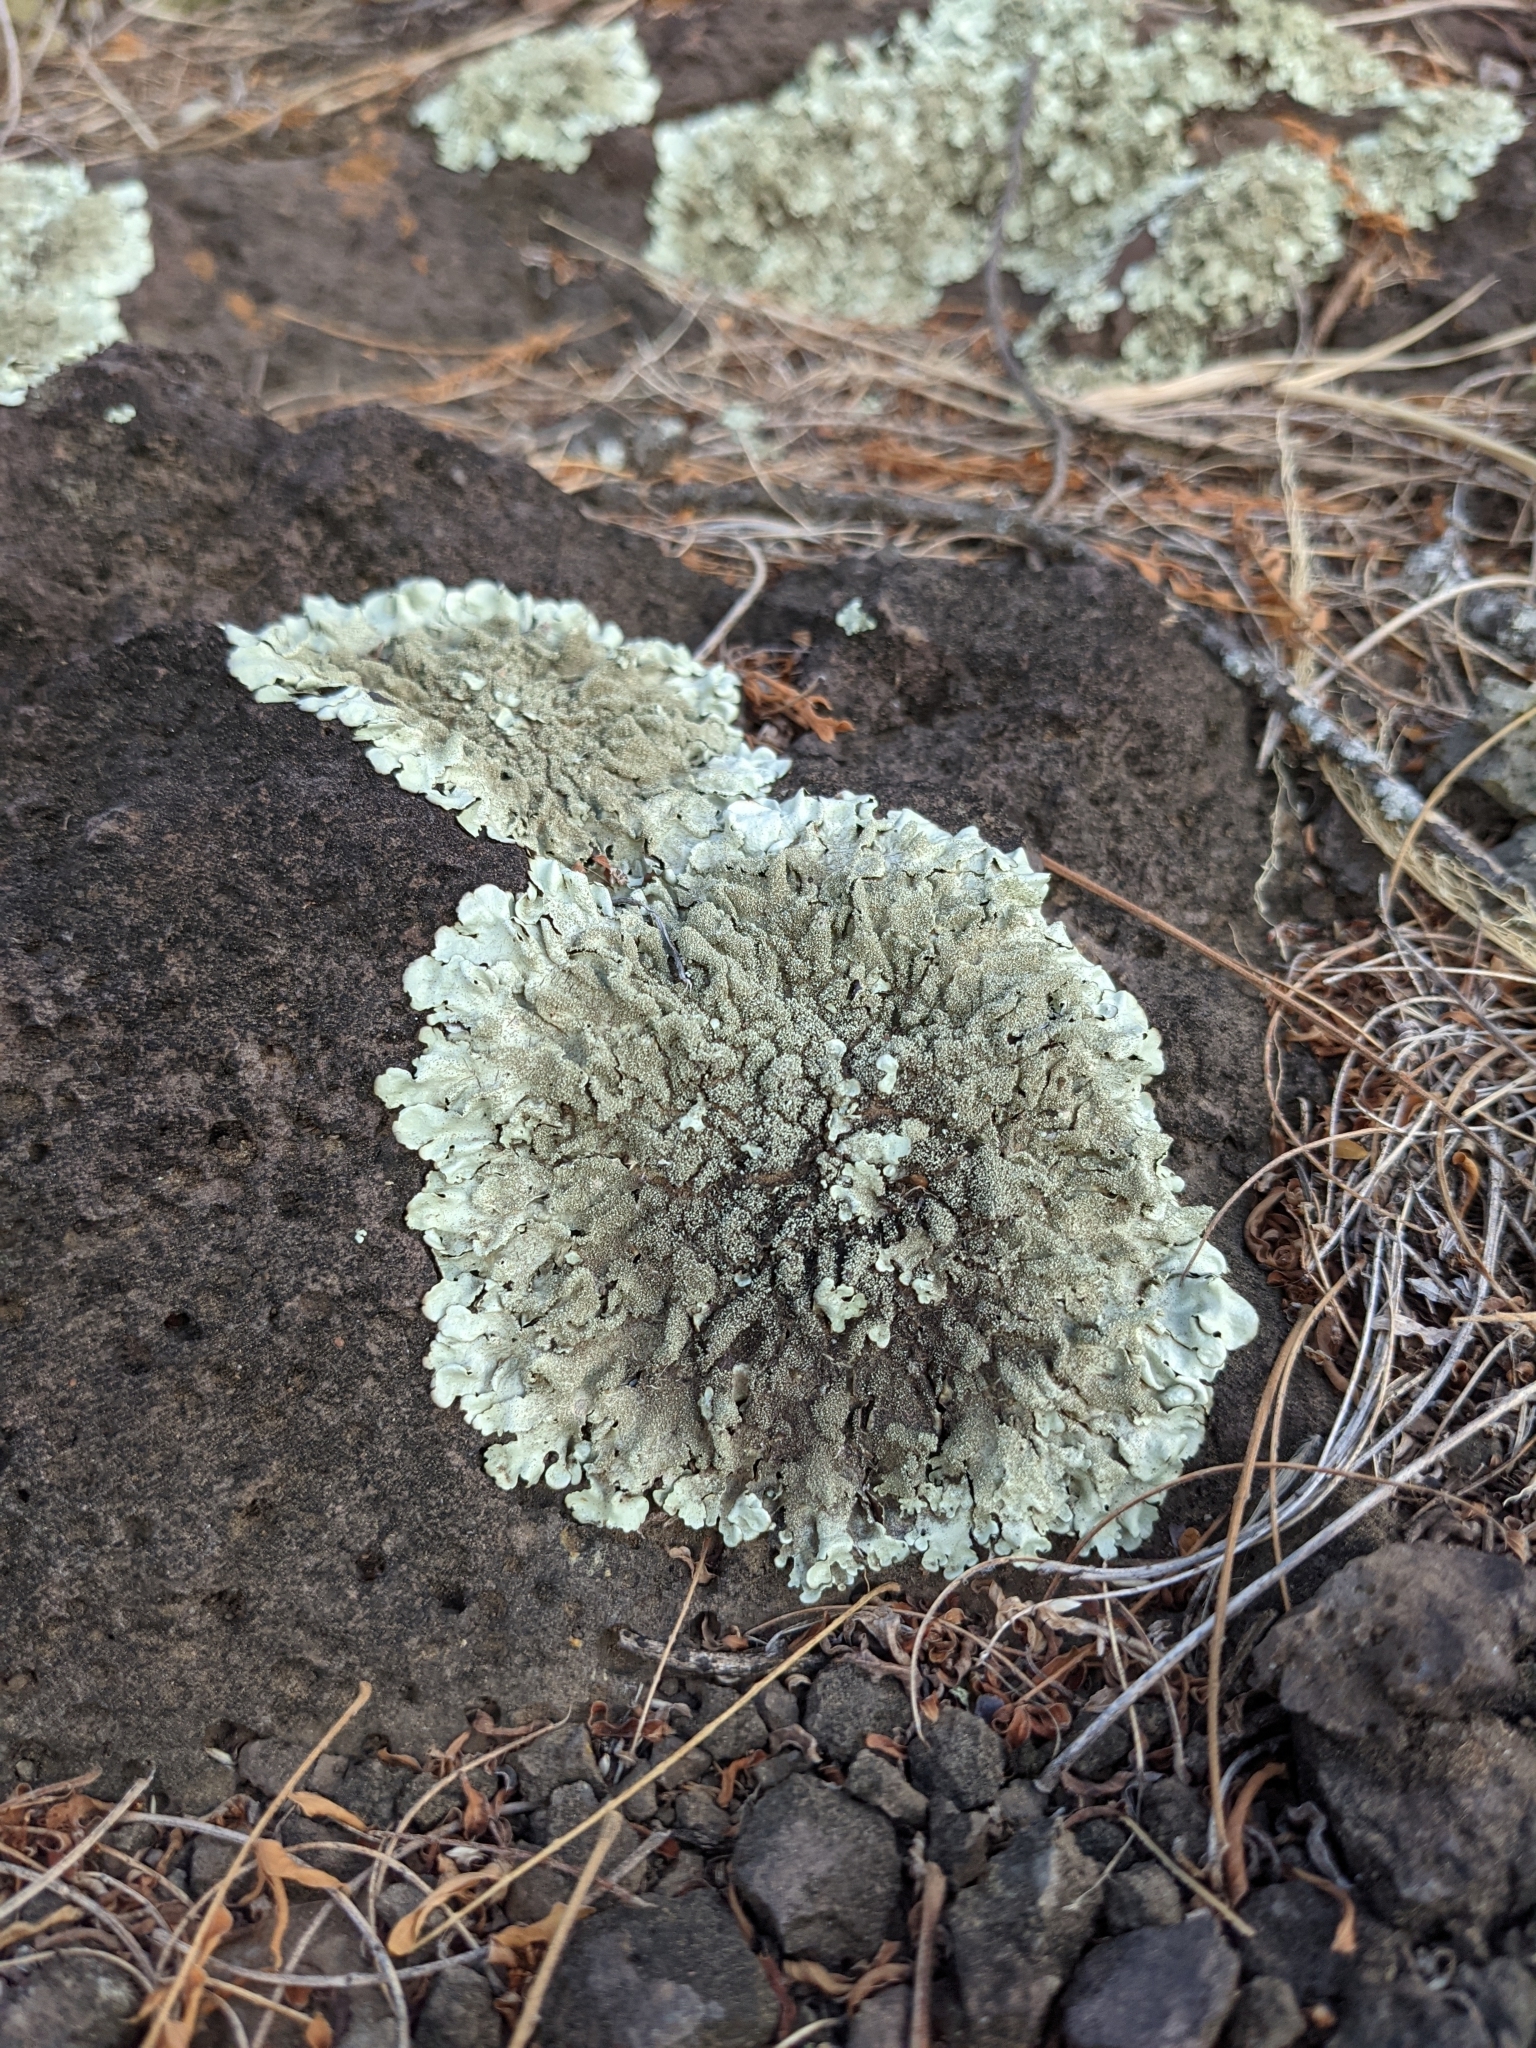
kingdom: Fungi
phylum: Ascomycota
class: Lecanoromycetes
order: Lecanorales
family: Parmeliaceae
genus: Flavoparmelia
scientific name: Flavoparmelia caperata
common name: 40-mile per hour lichen
